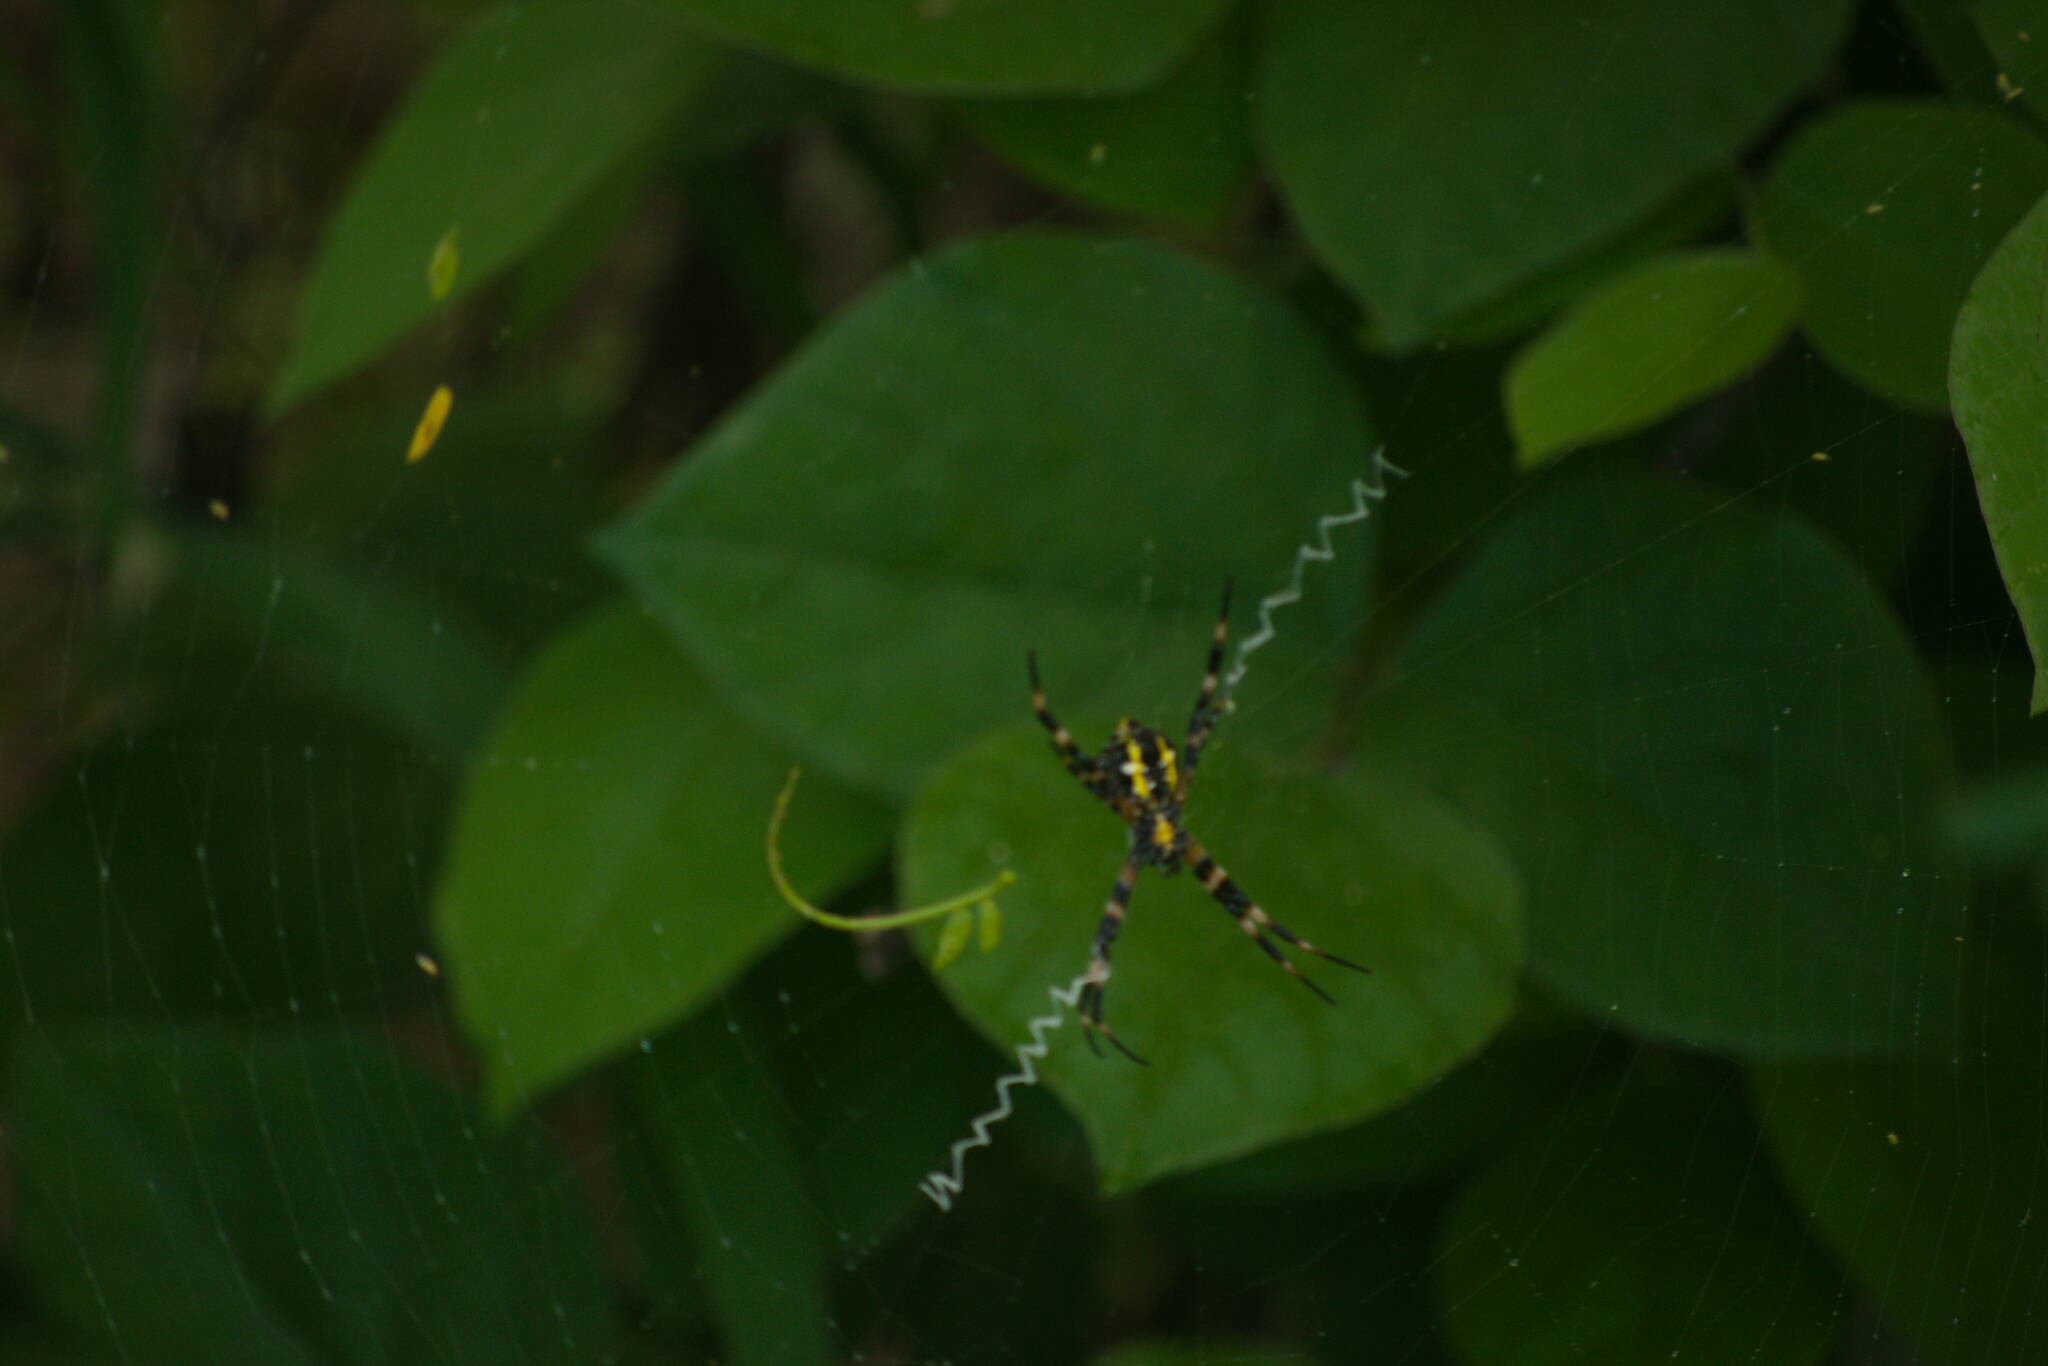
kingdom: Animalia
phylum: Arthropoda
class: Arachnida
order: Araneae
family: Araneidae
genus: Argiope
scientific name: Argiope appensa
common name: Garden spider
